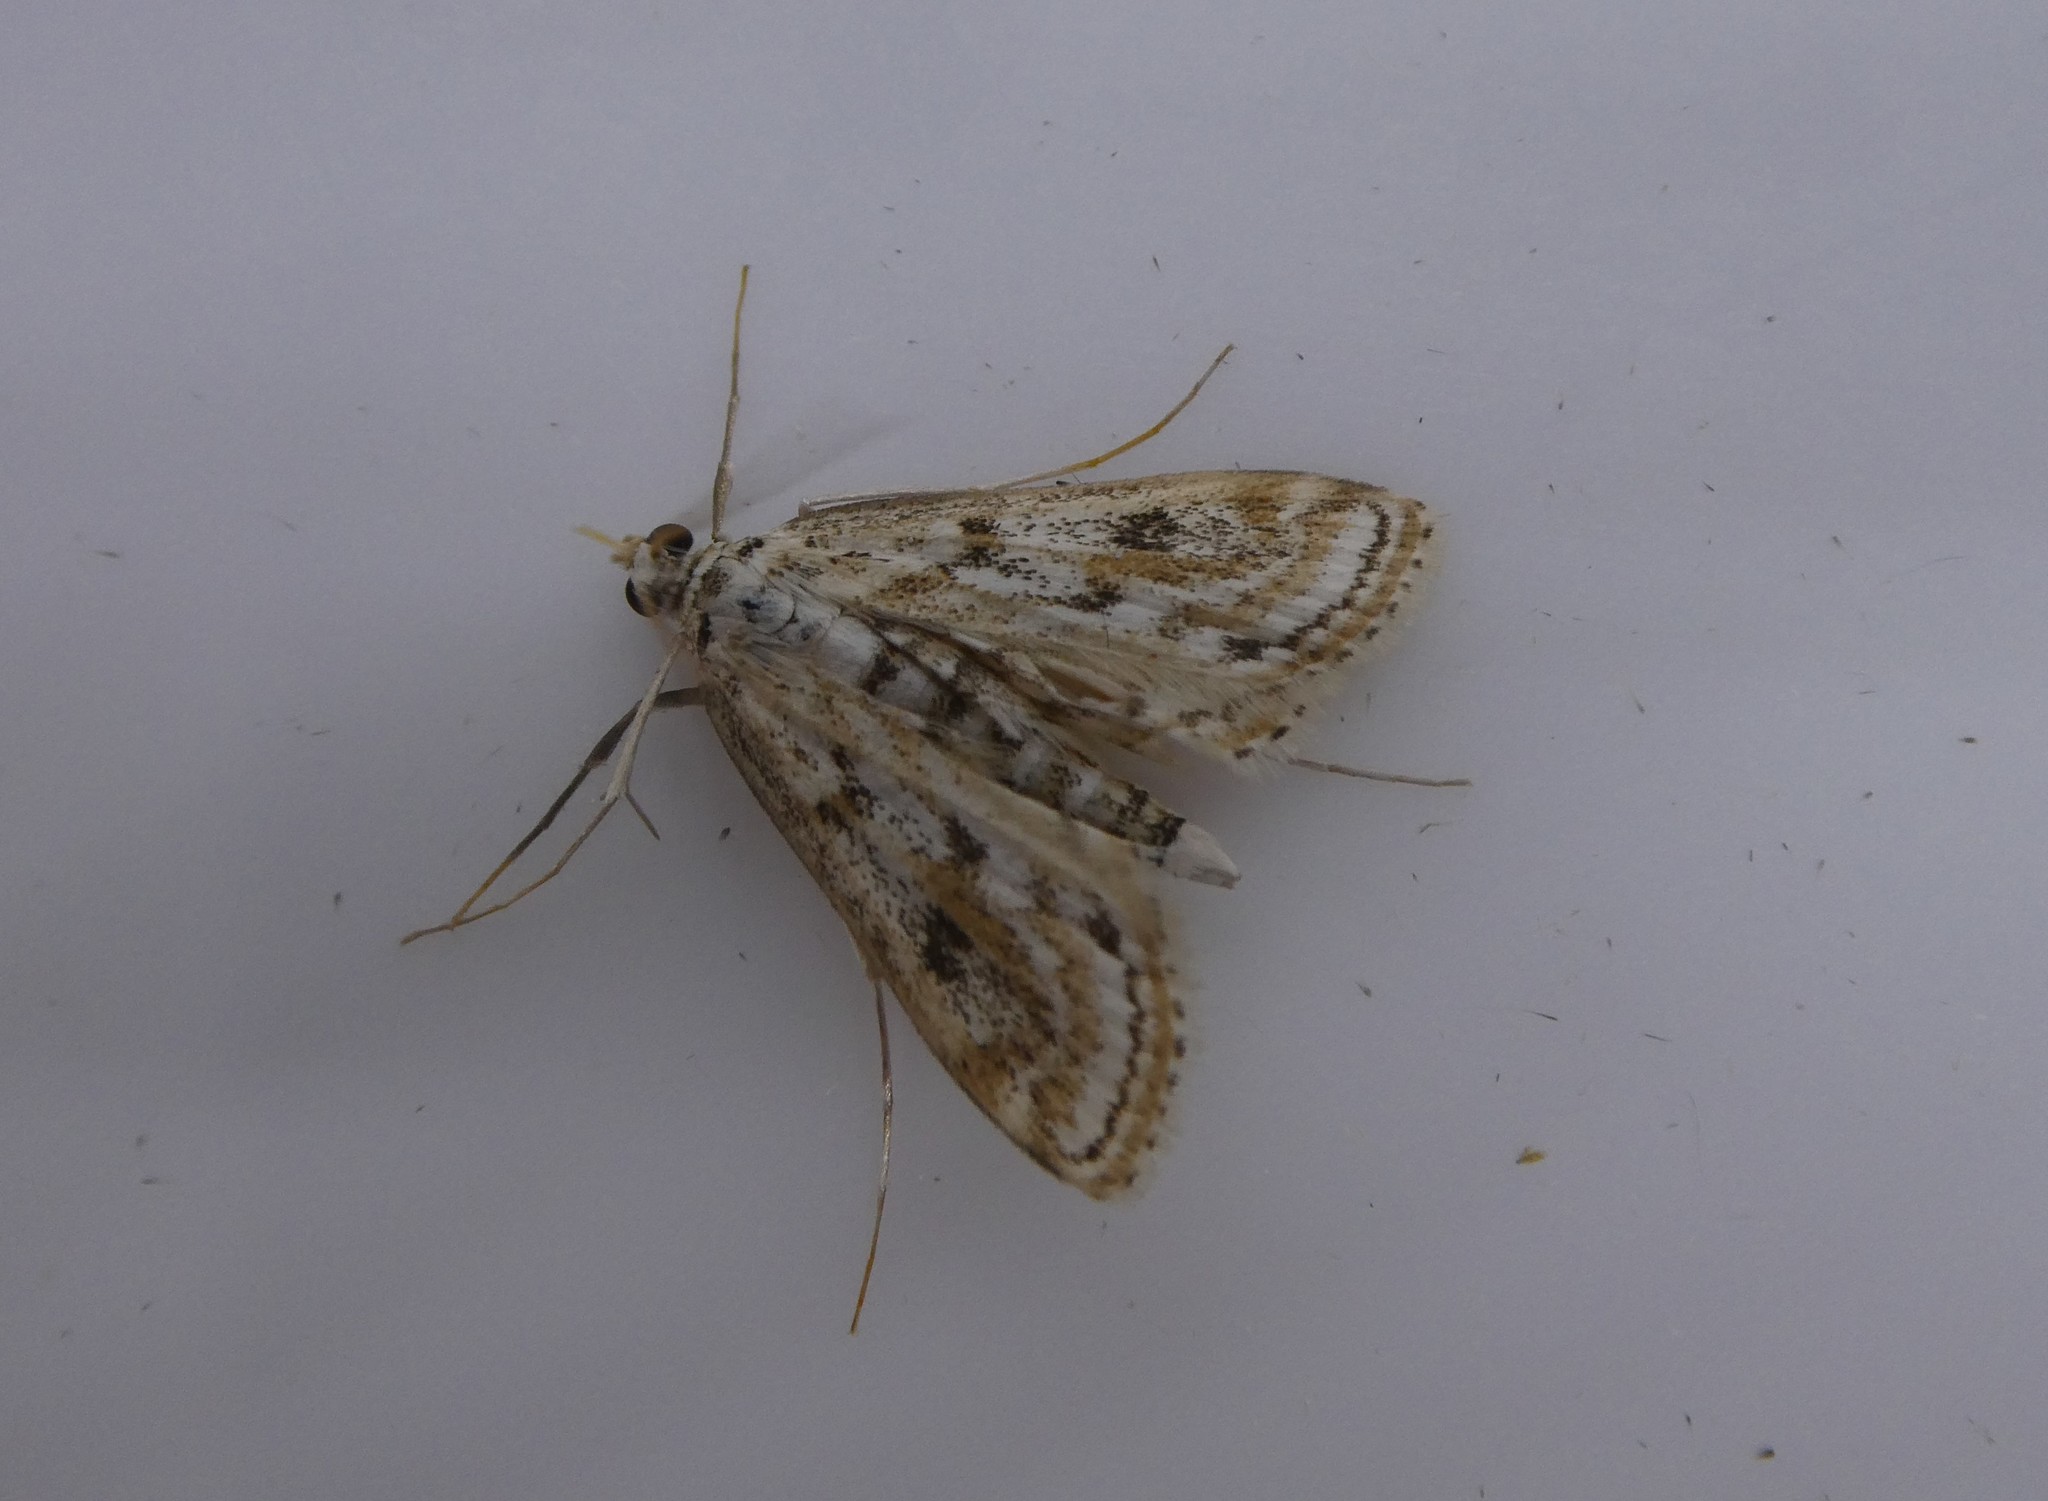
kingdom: Animalia
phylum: Arthropoda
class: Insecta
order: Lepidoptera
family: Crambidae
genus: Parapoynx
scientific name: Parapoynx allionealis
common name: Bladderwort casemaker
